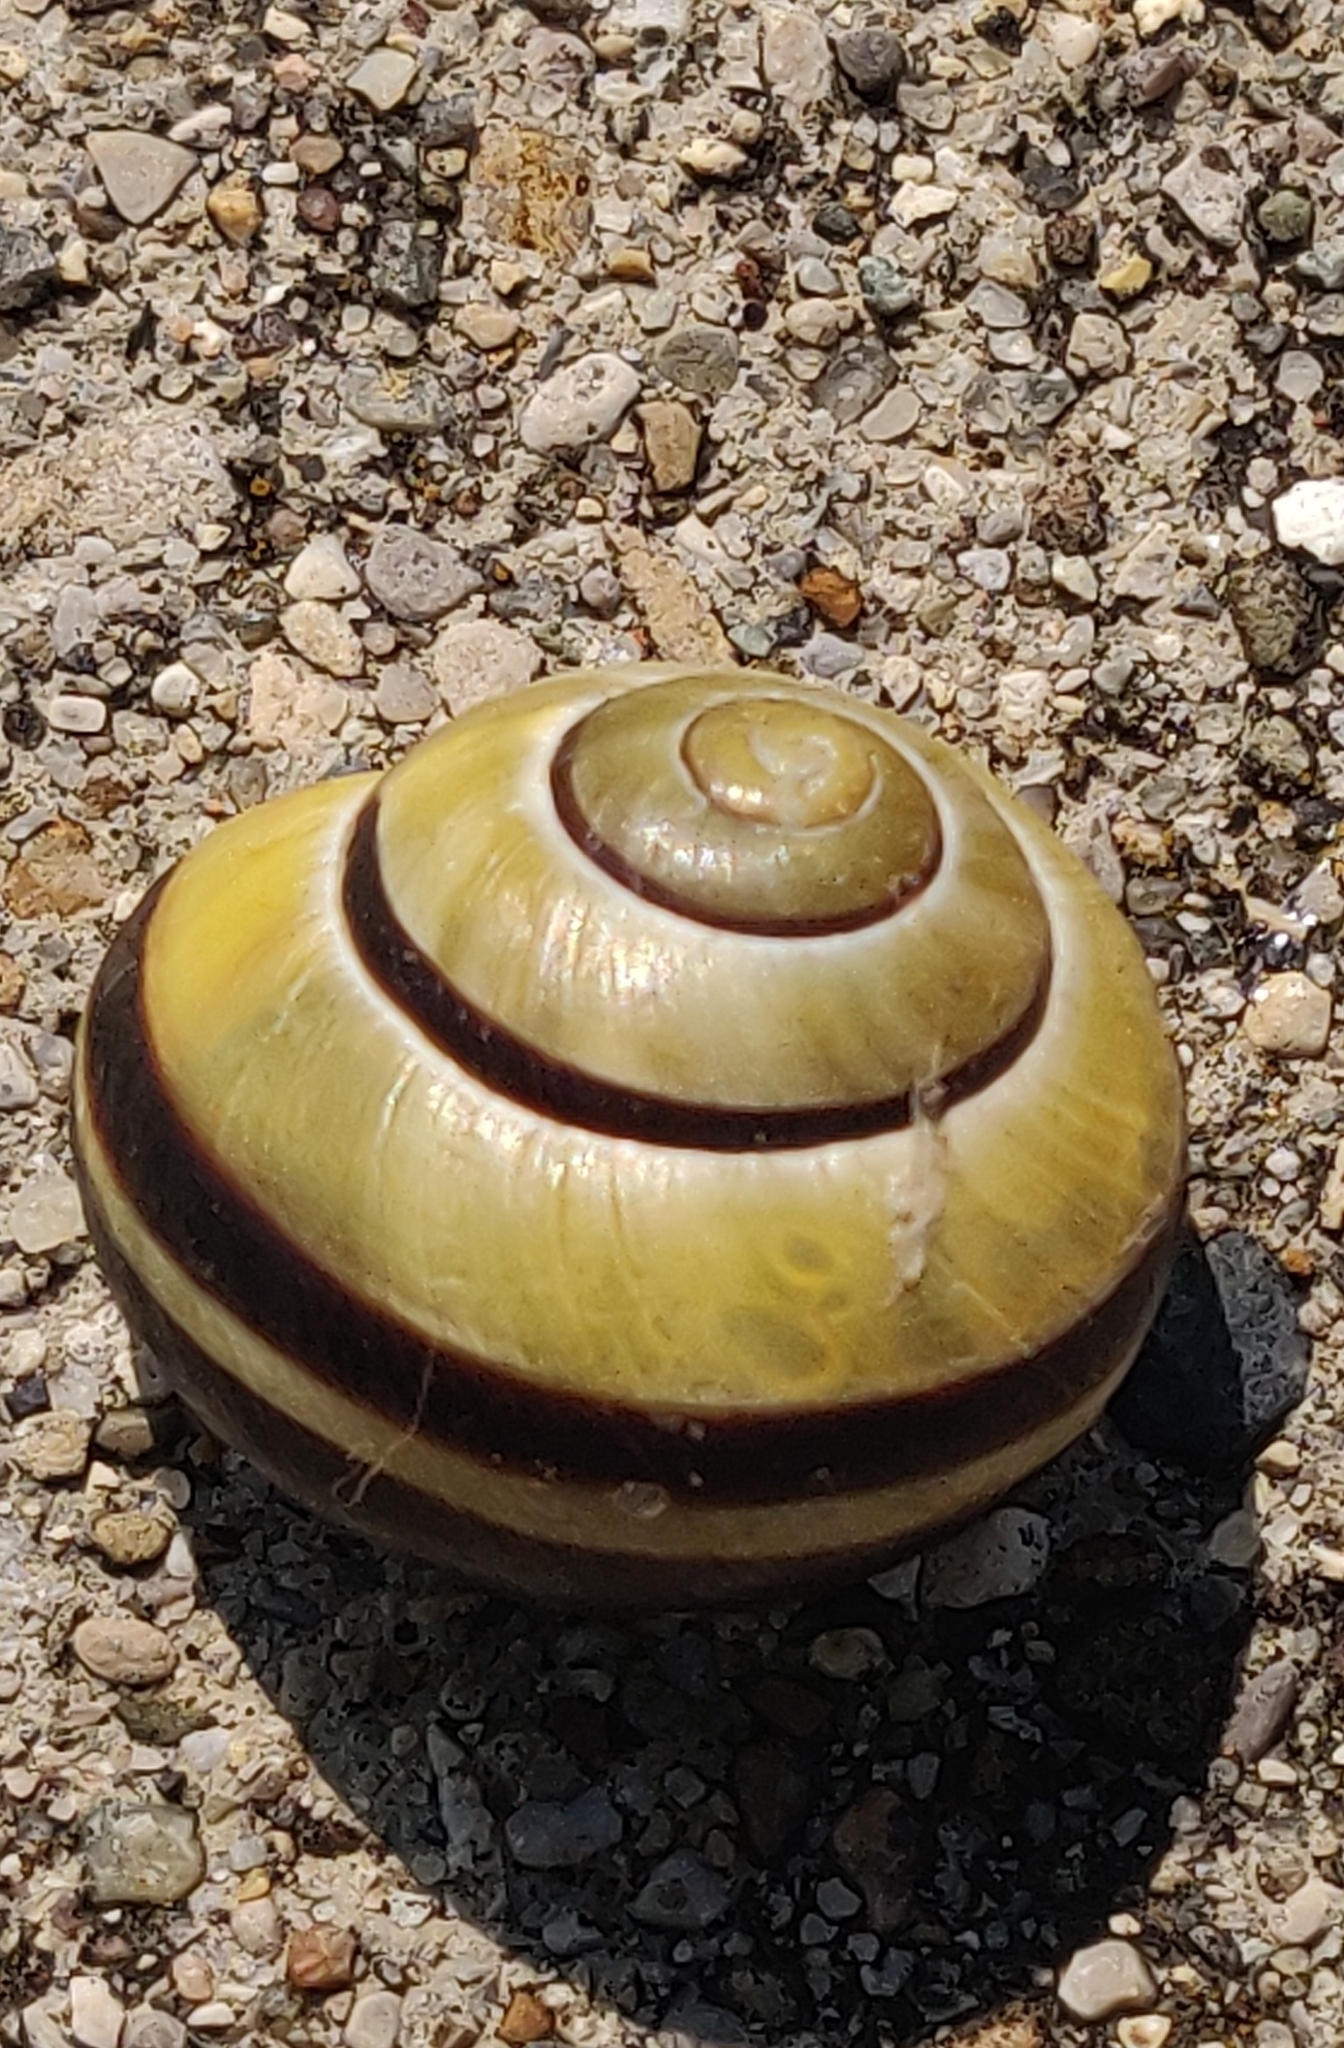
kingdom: Animalia
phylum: Mollusca
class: Gastropoda
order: Stylommatophora
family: Helicidae
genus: Cepaea
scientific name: Cepaea nemoralis
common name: Grovesnail
